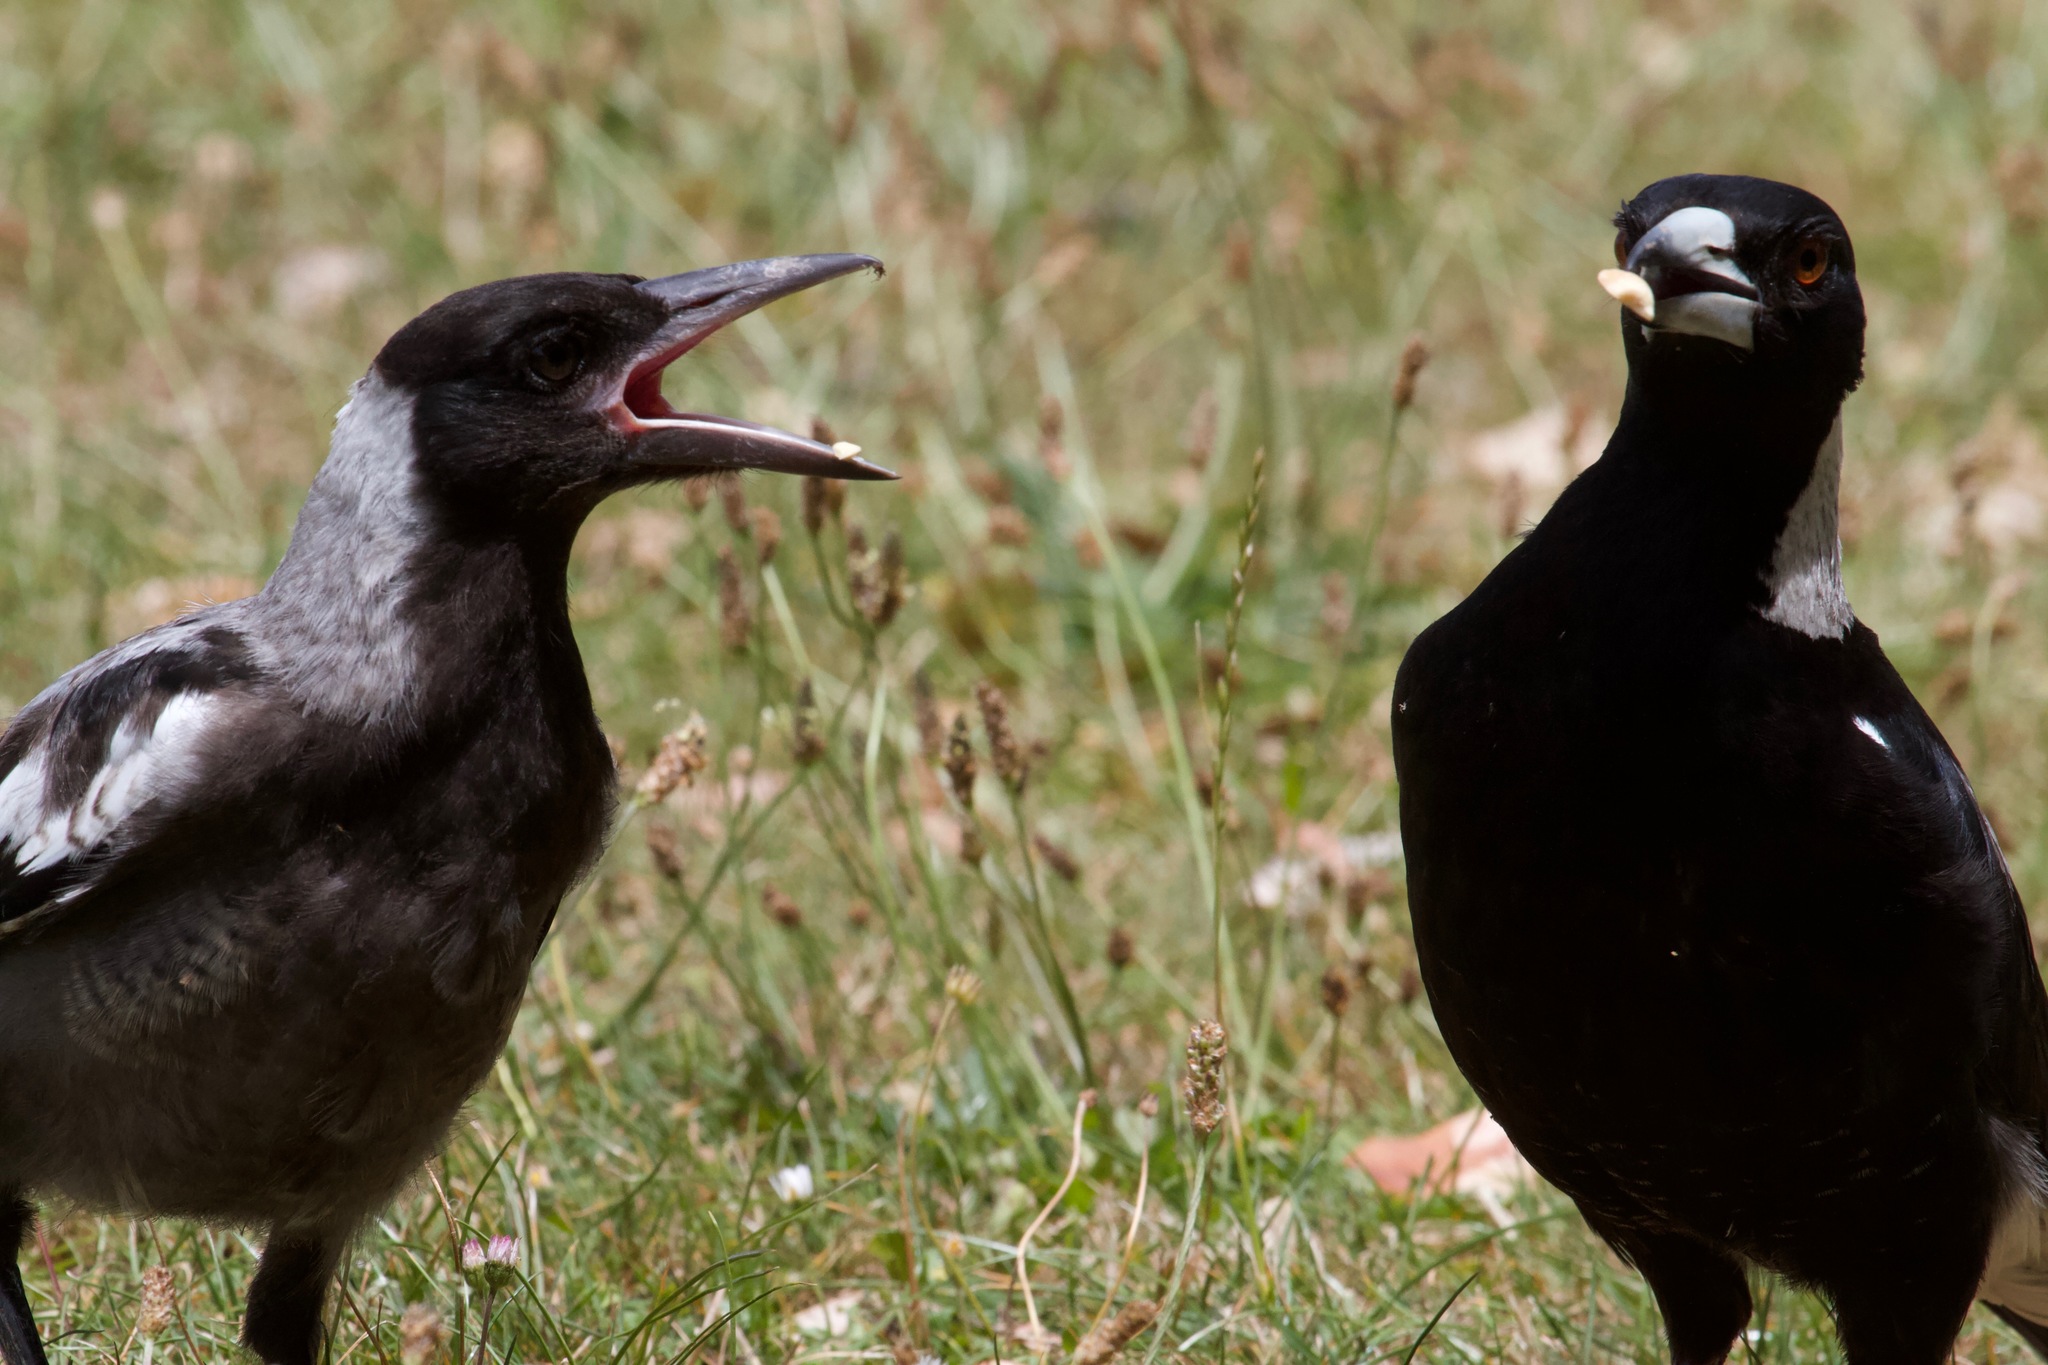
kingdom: Animalia
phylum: Chordata
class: Aves
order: Passeriformes
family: Cracticidae
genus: Gymnorhina
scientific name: Gymnorhina tibicen
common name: Australian magpie
